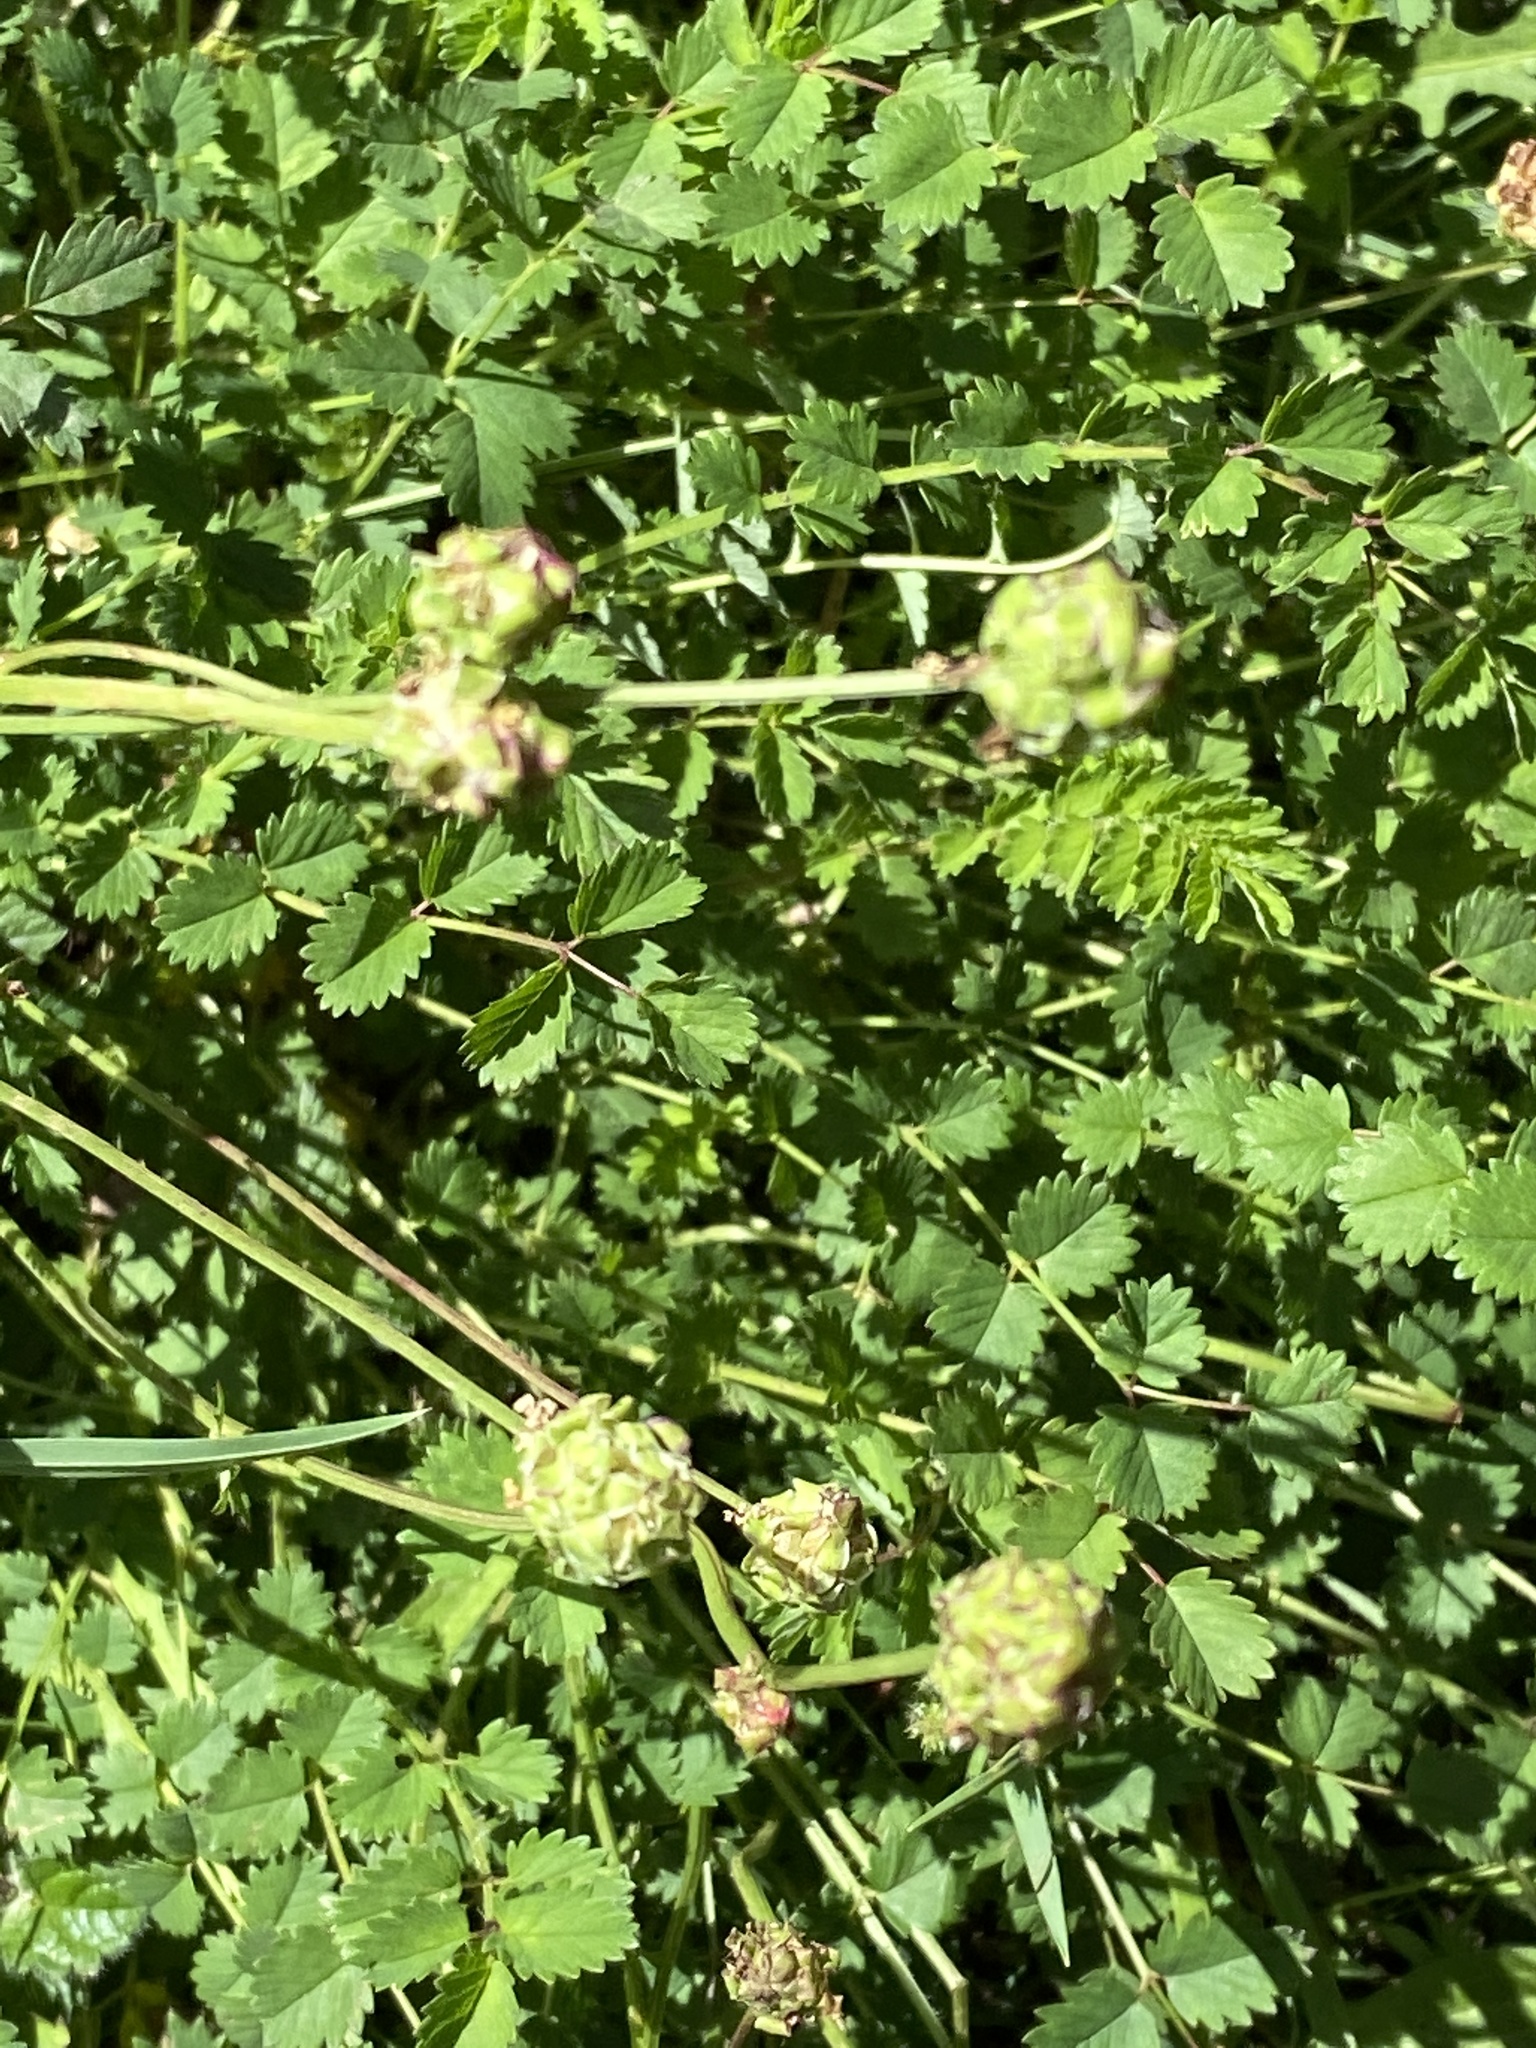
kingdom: Plantae
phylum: Tracheophyta
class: Magnoliopsida
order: Rosales
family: Rosaceae
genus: Poterium
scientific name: Poterium sanguisorba
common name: Salad burnet
